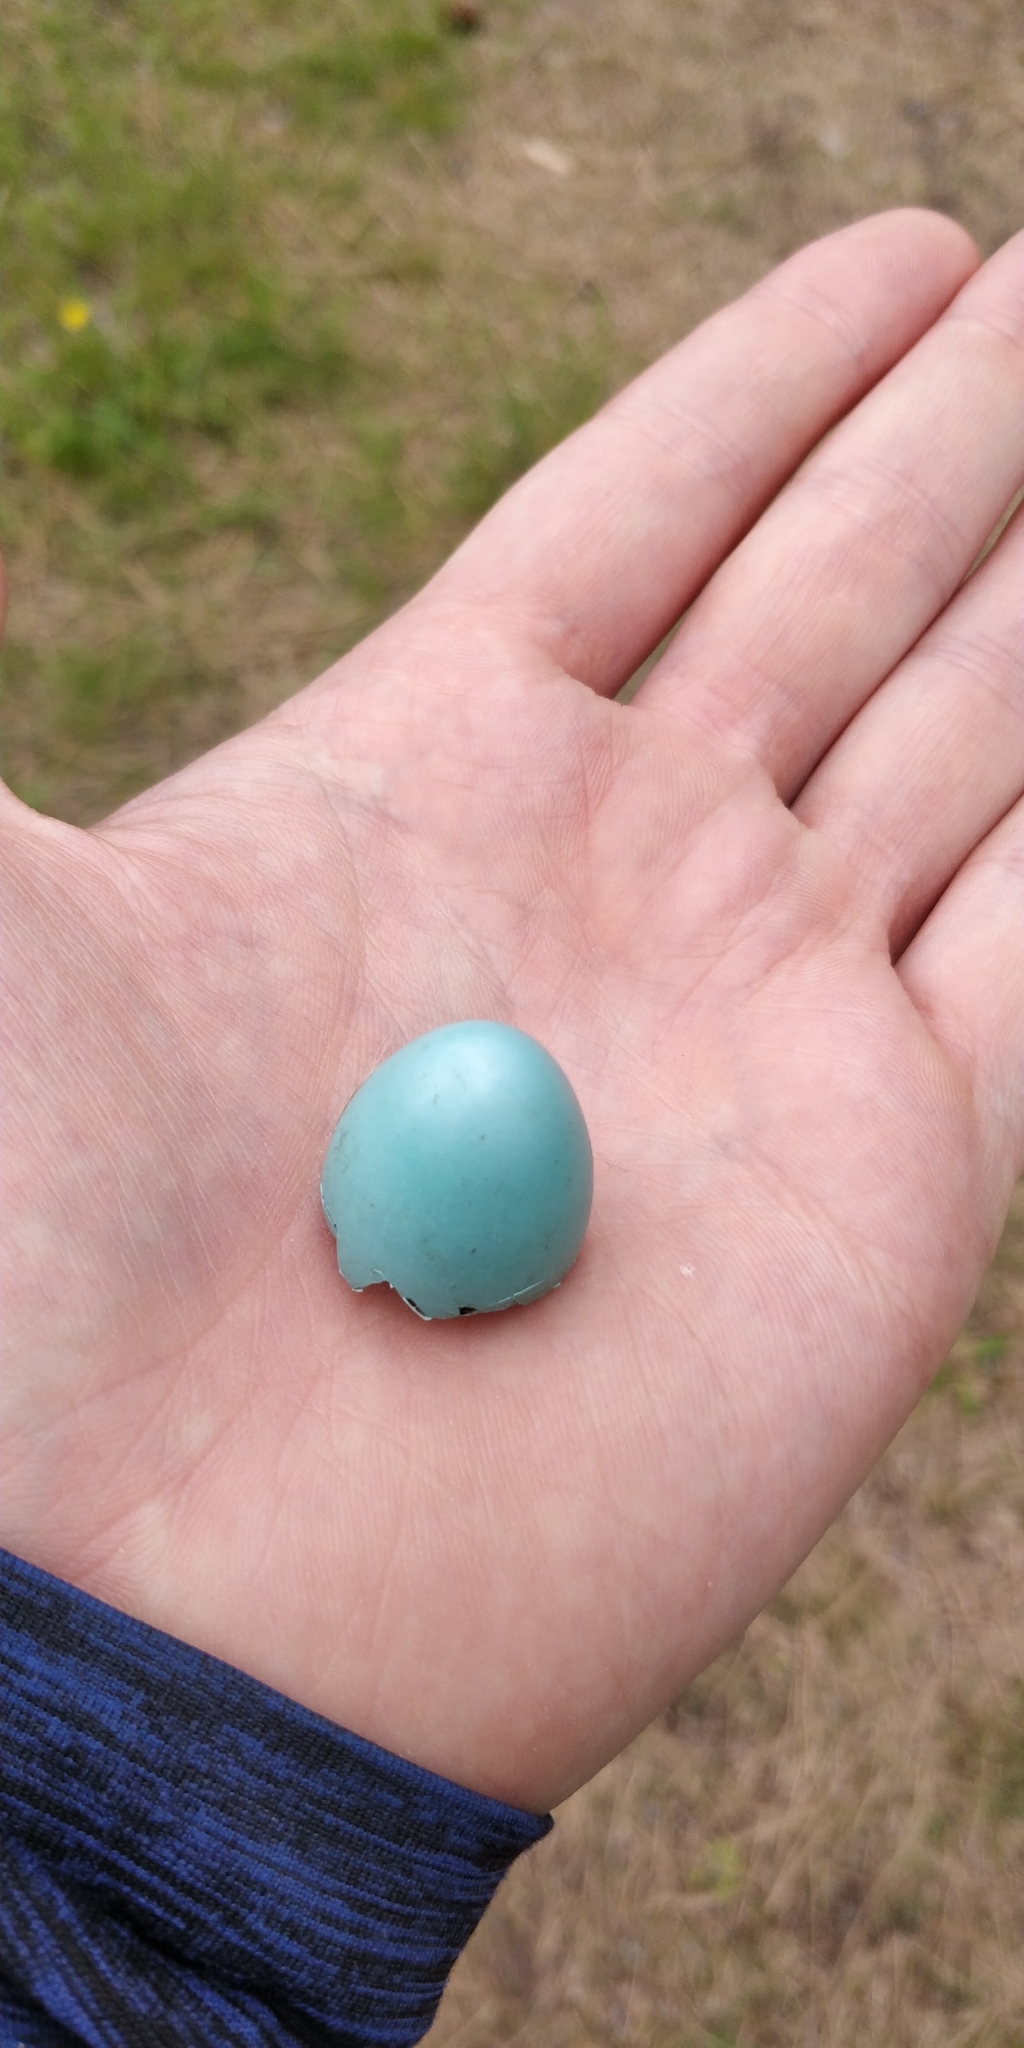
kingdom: Animalia
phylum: Chordata
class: Aves
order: Passeriformes
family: Turdidae
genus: Turdus
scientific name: Turdus migratorius
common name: American robin
